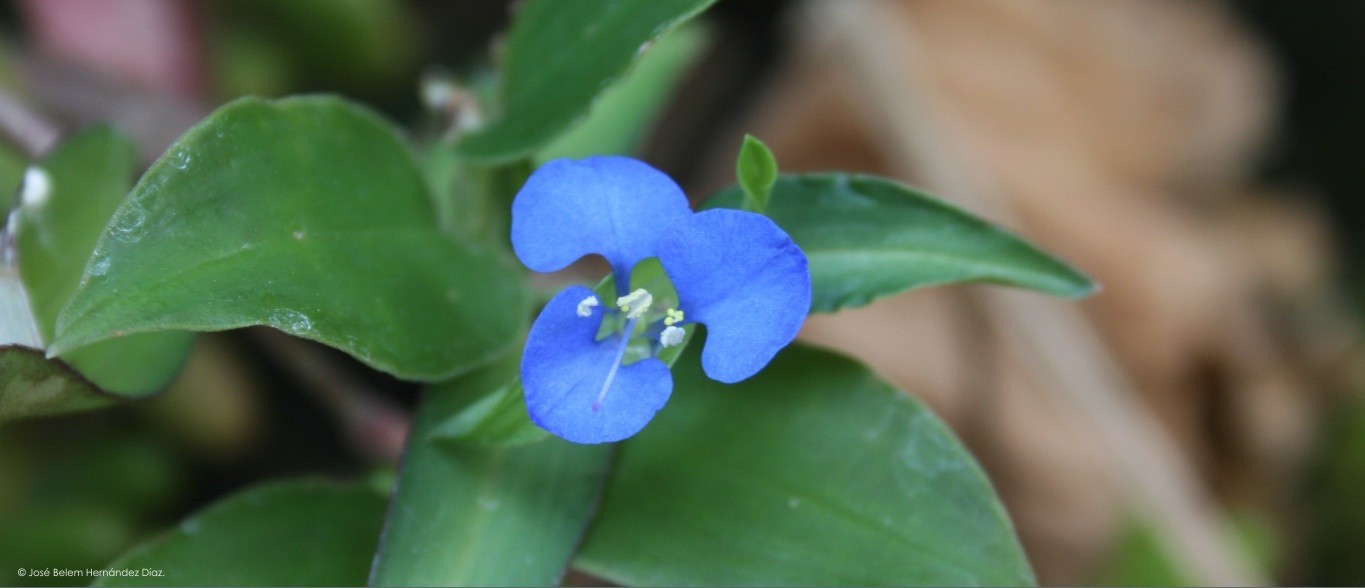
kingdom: Plantae
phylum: Tracheophyta
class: Liliopsida
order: Commelinales
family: Commelinaceae
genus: Commelina
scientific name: Commelina diffusa
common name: Climbing dayflower
